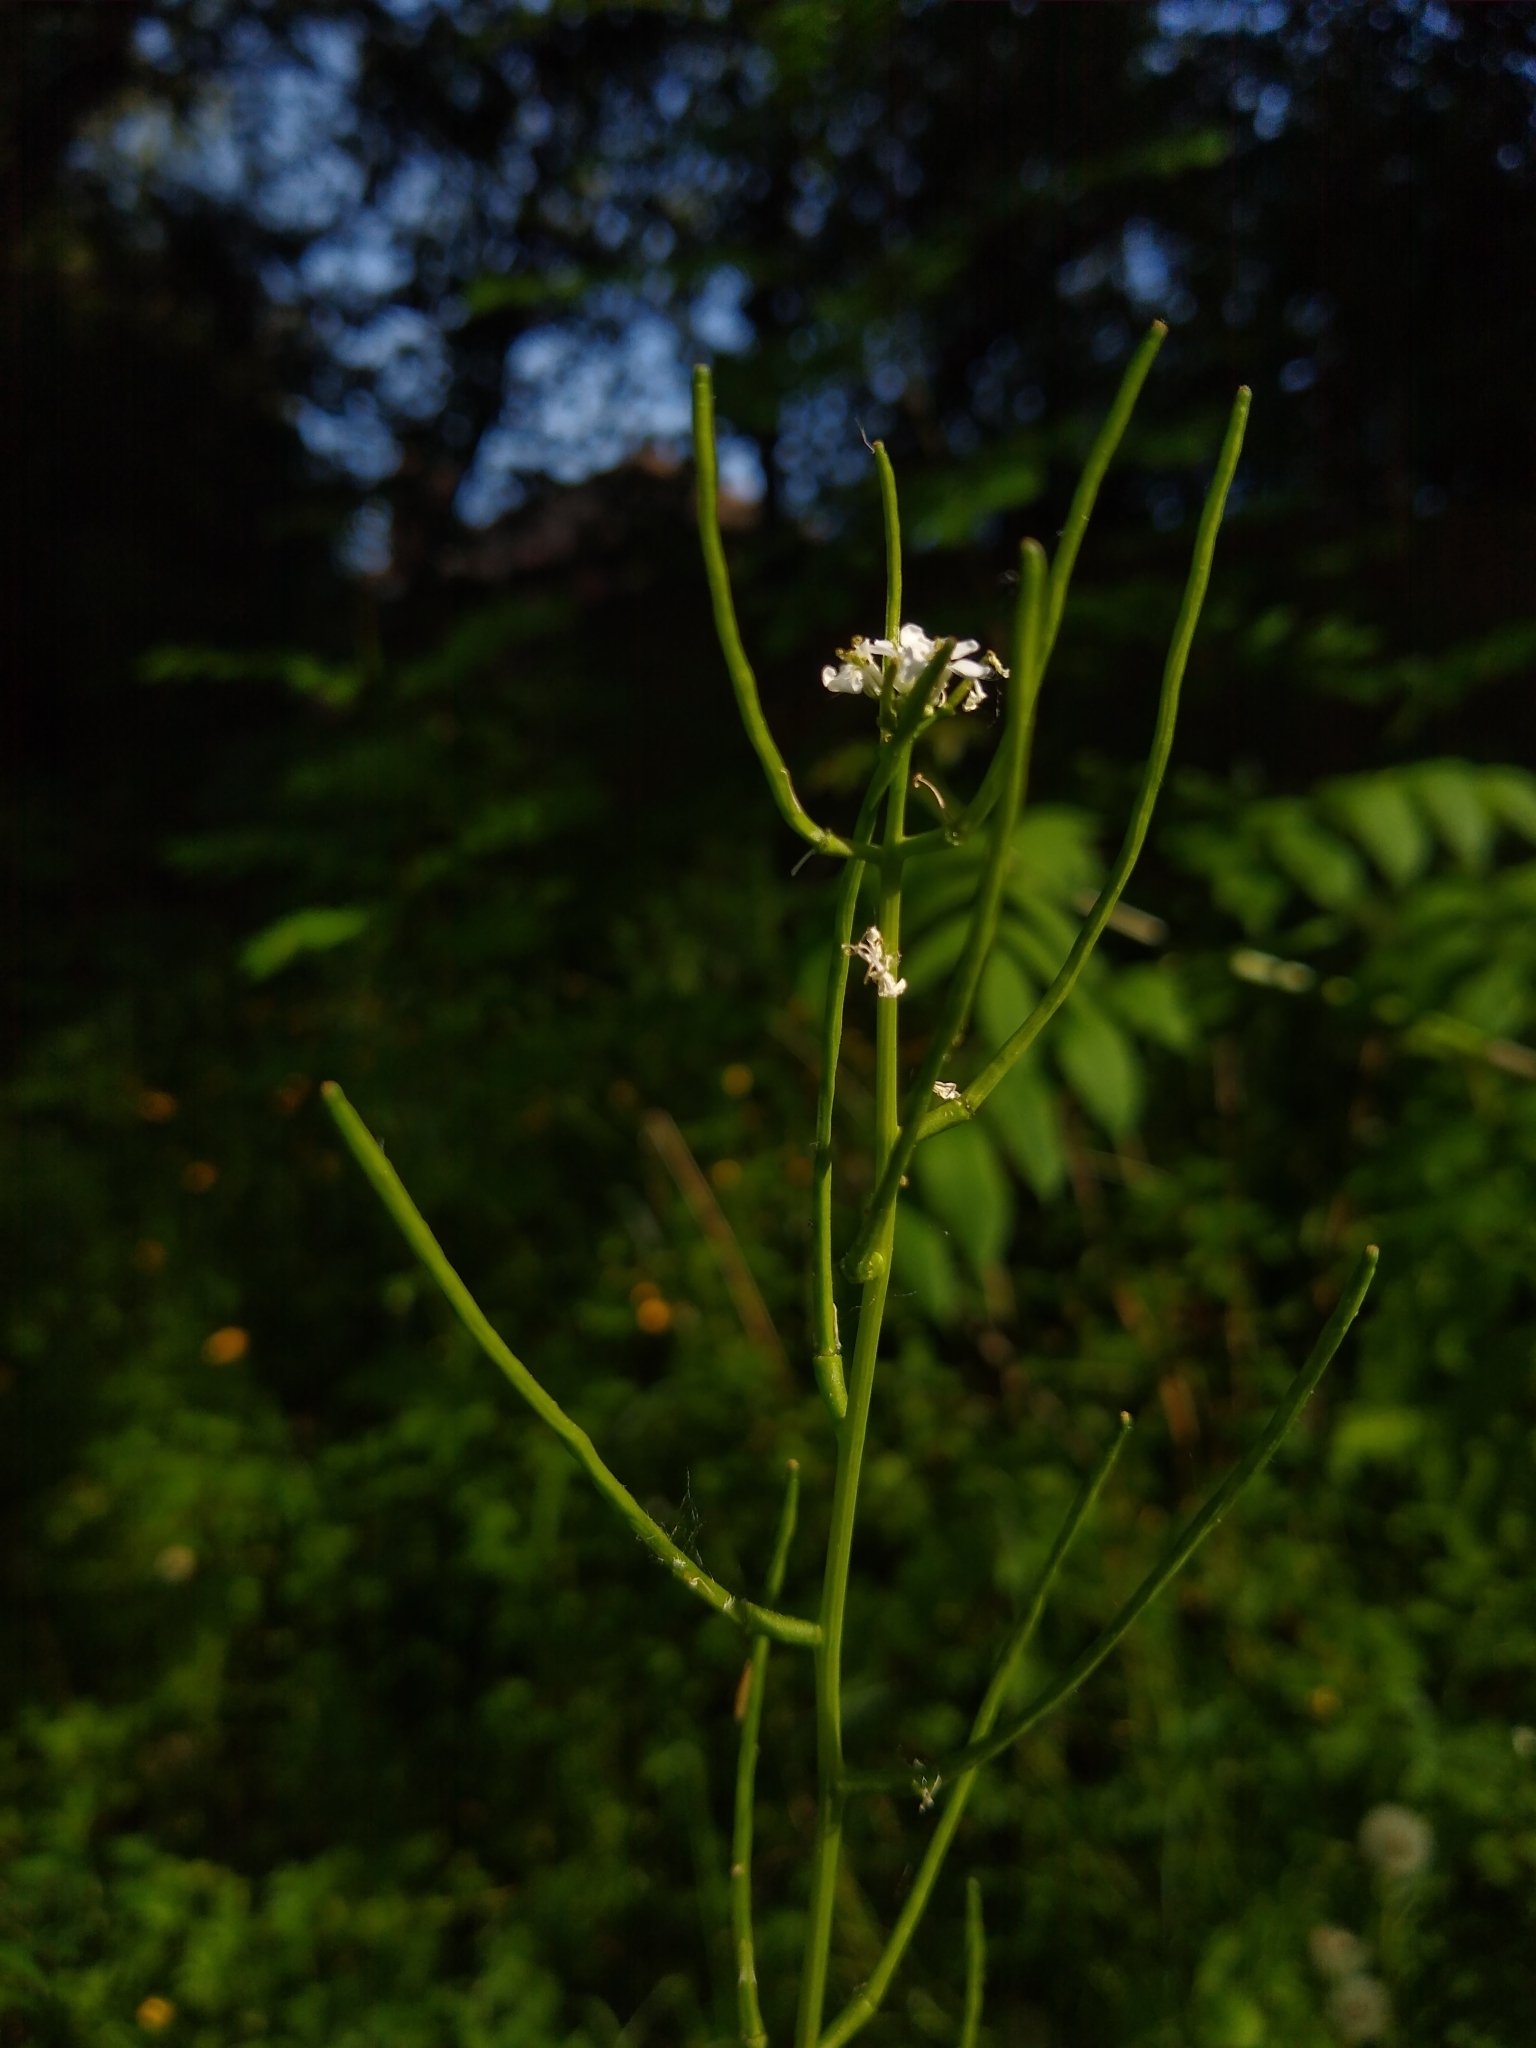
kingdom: Plantae
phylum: Tracheophyta
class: Magnoliopsida
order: Brassicales
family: Brassicaceae
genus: Alliaria
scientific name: Alliaria petiolata
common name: Garlic mustard
